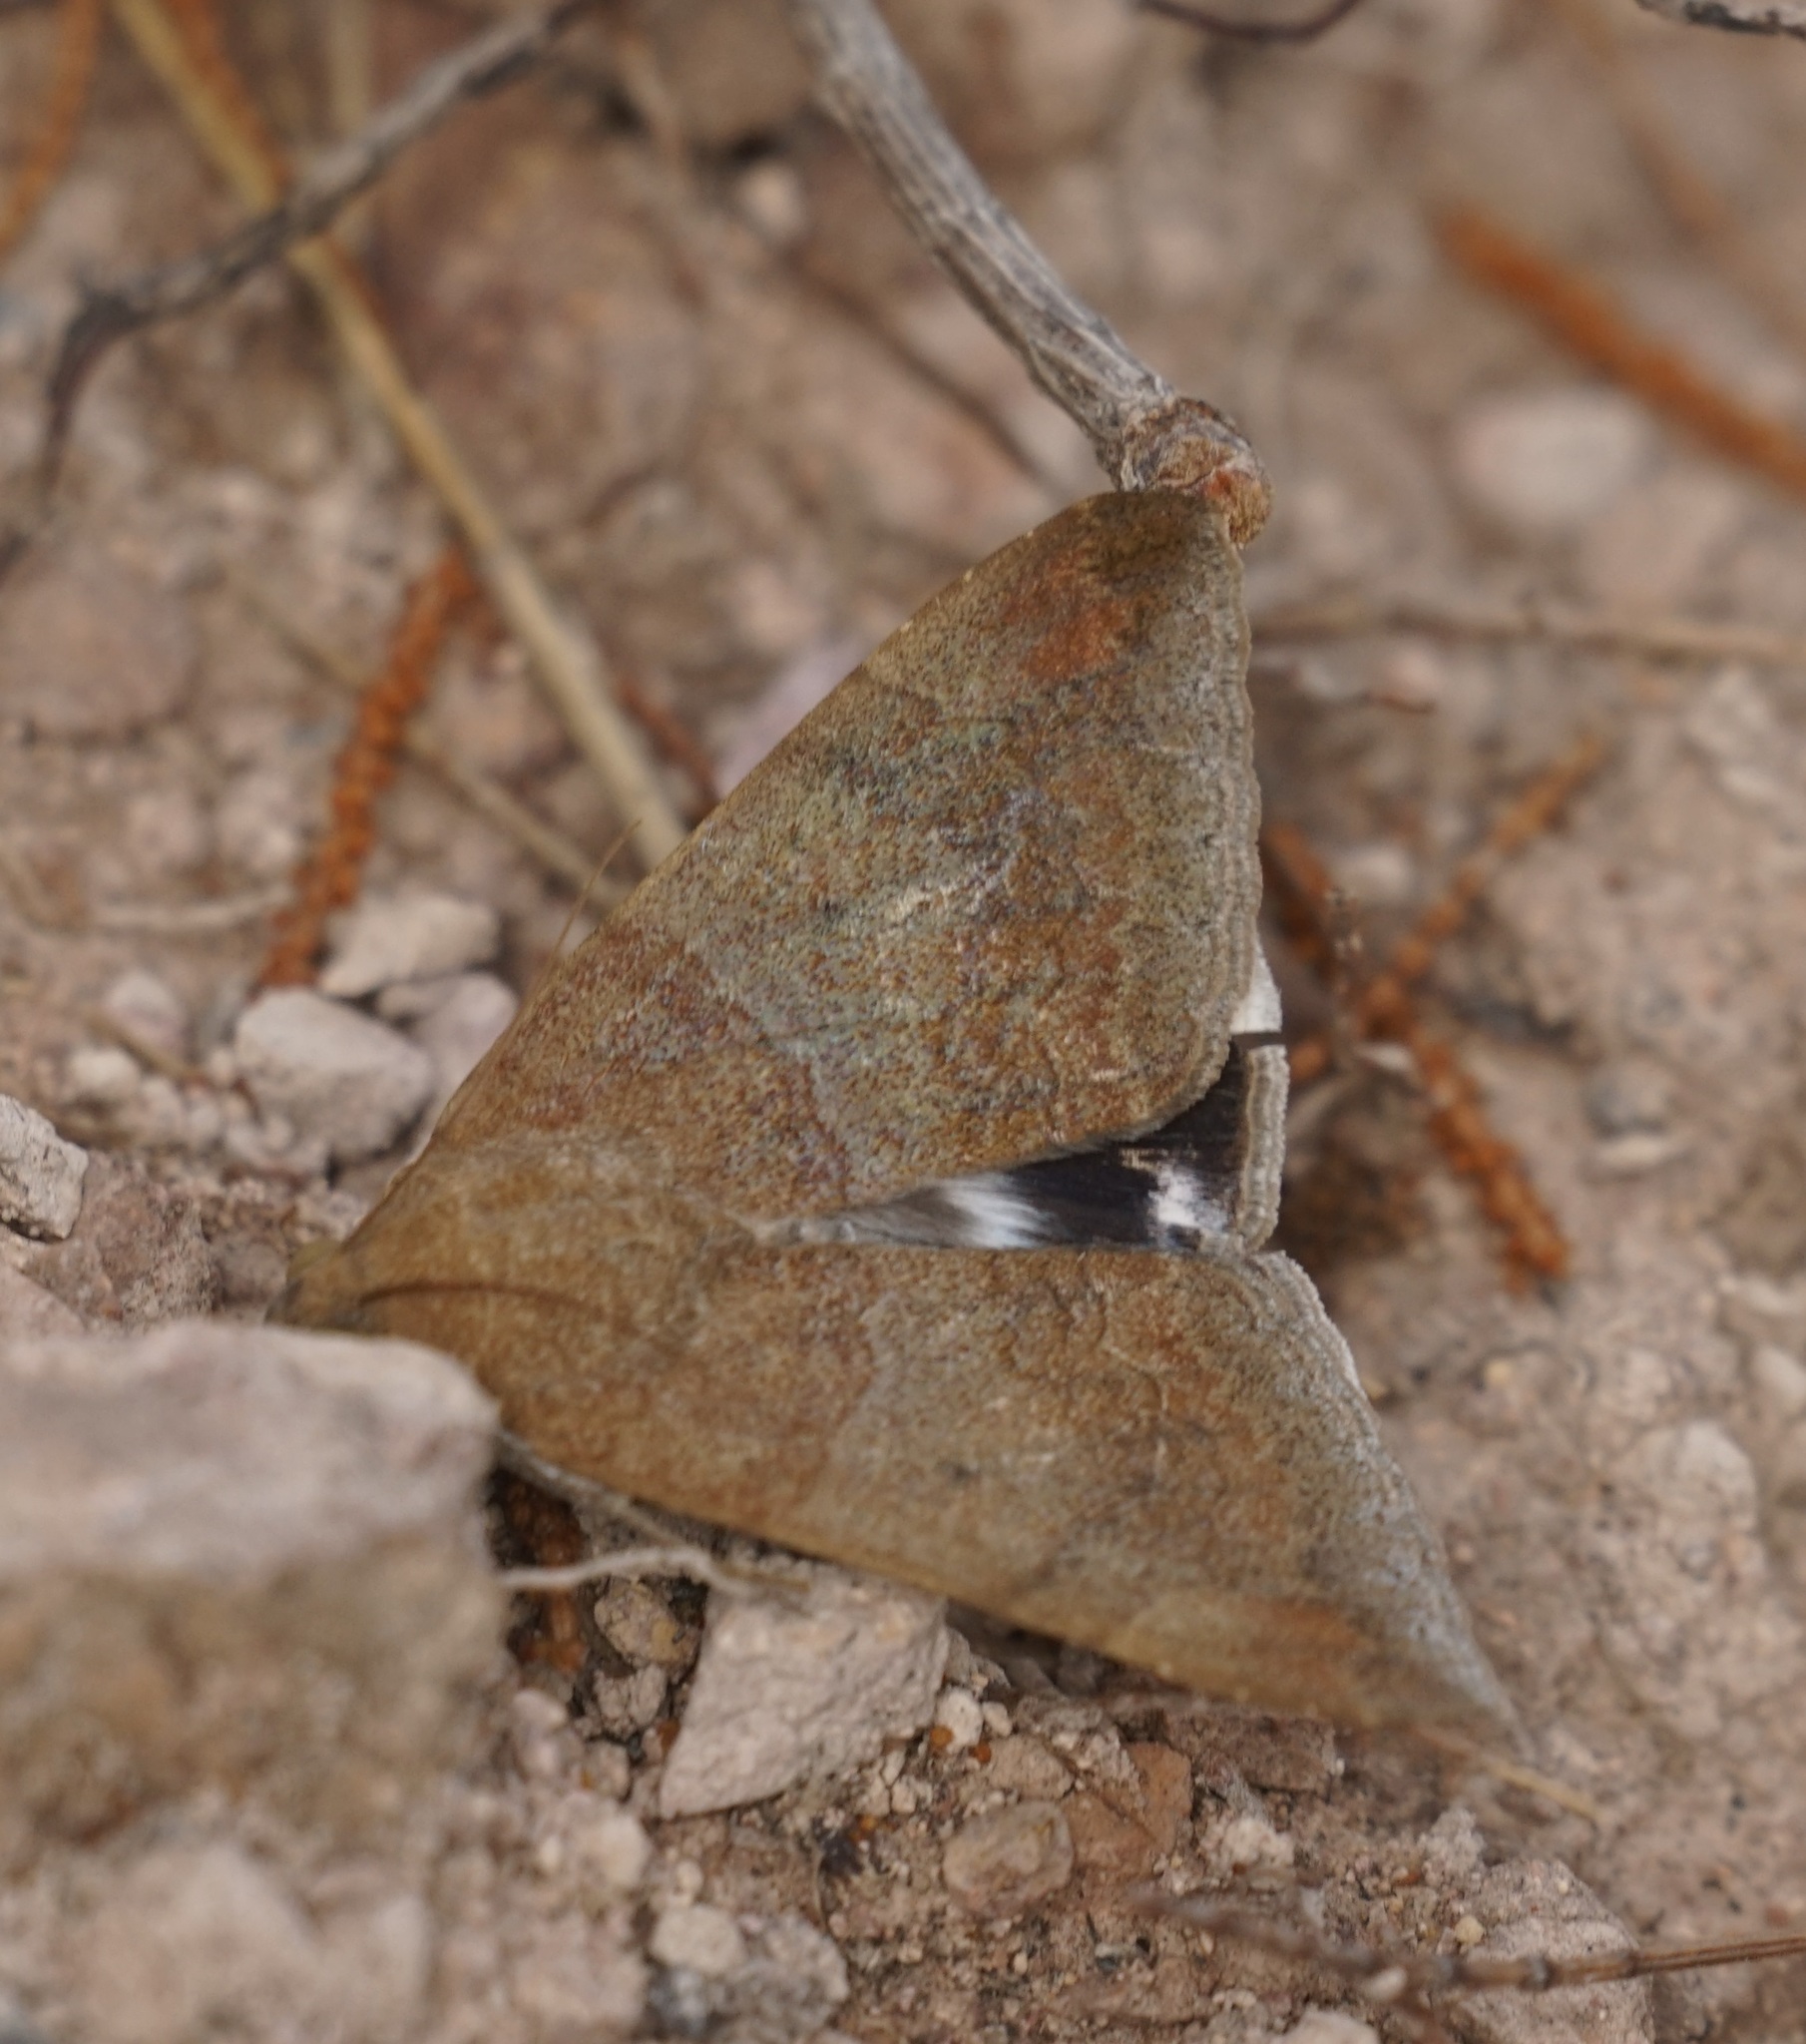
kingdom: Animalia
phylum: Arthropoda
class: Insecta
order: Lepidoptera
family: Erebidae
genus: Achaea
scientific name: Achaea janata
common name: Croton caterpillar
